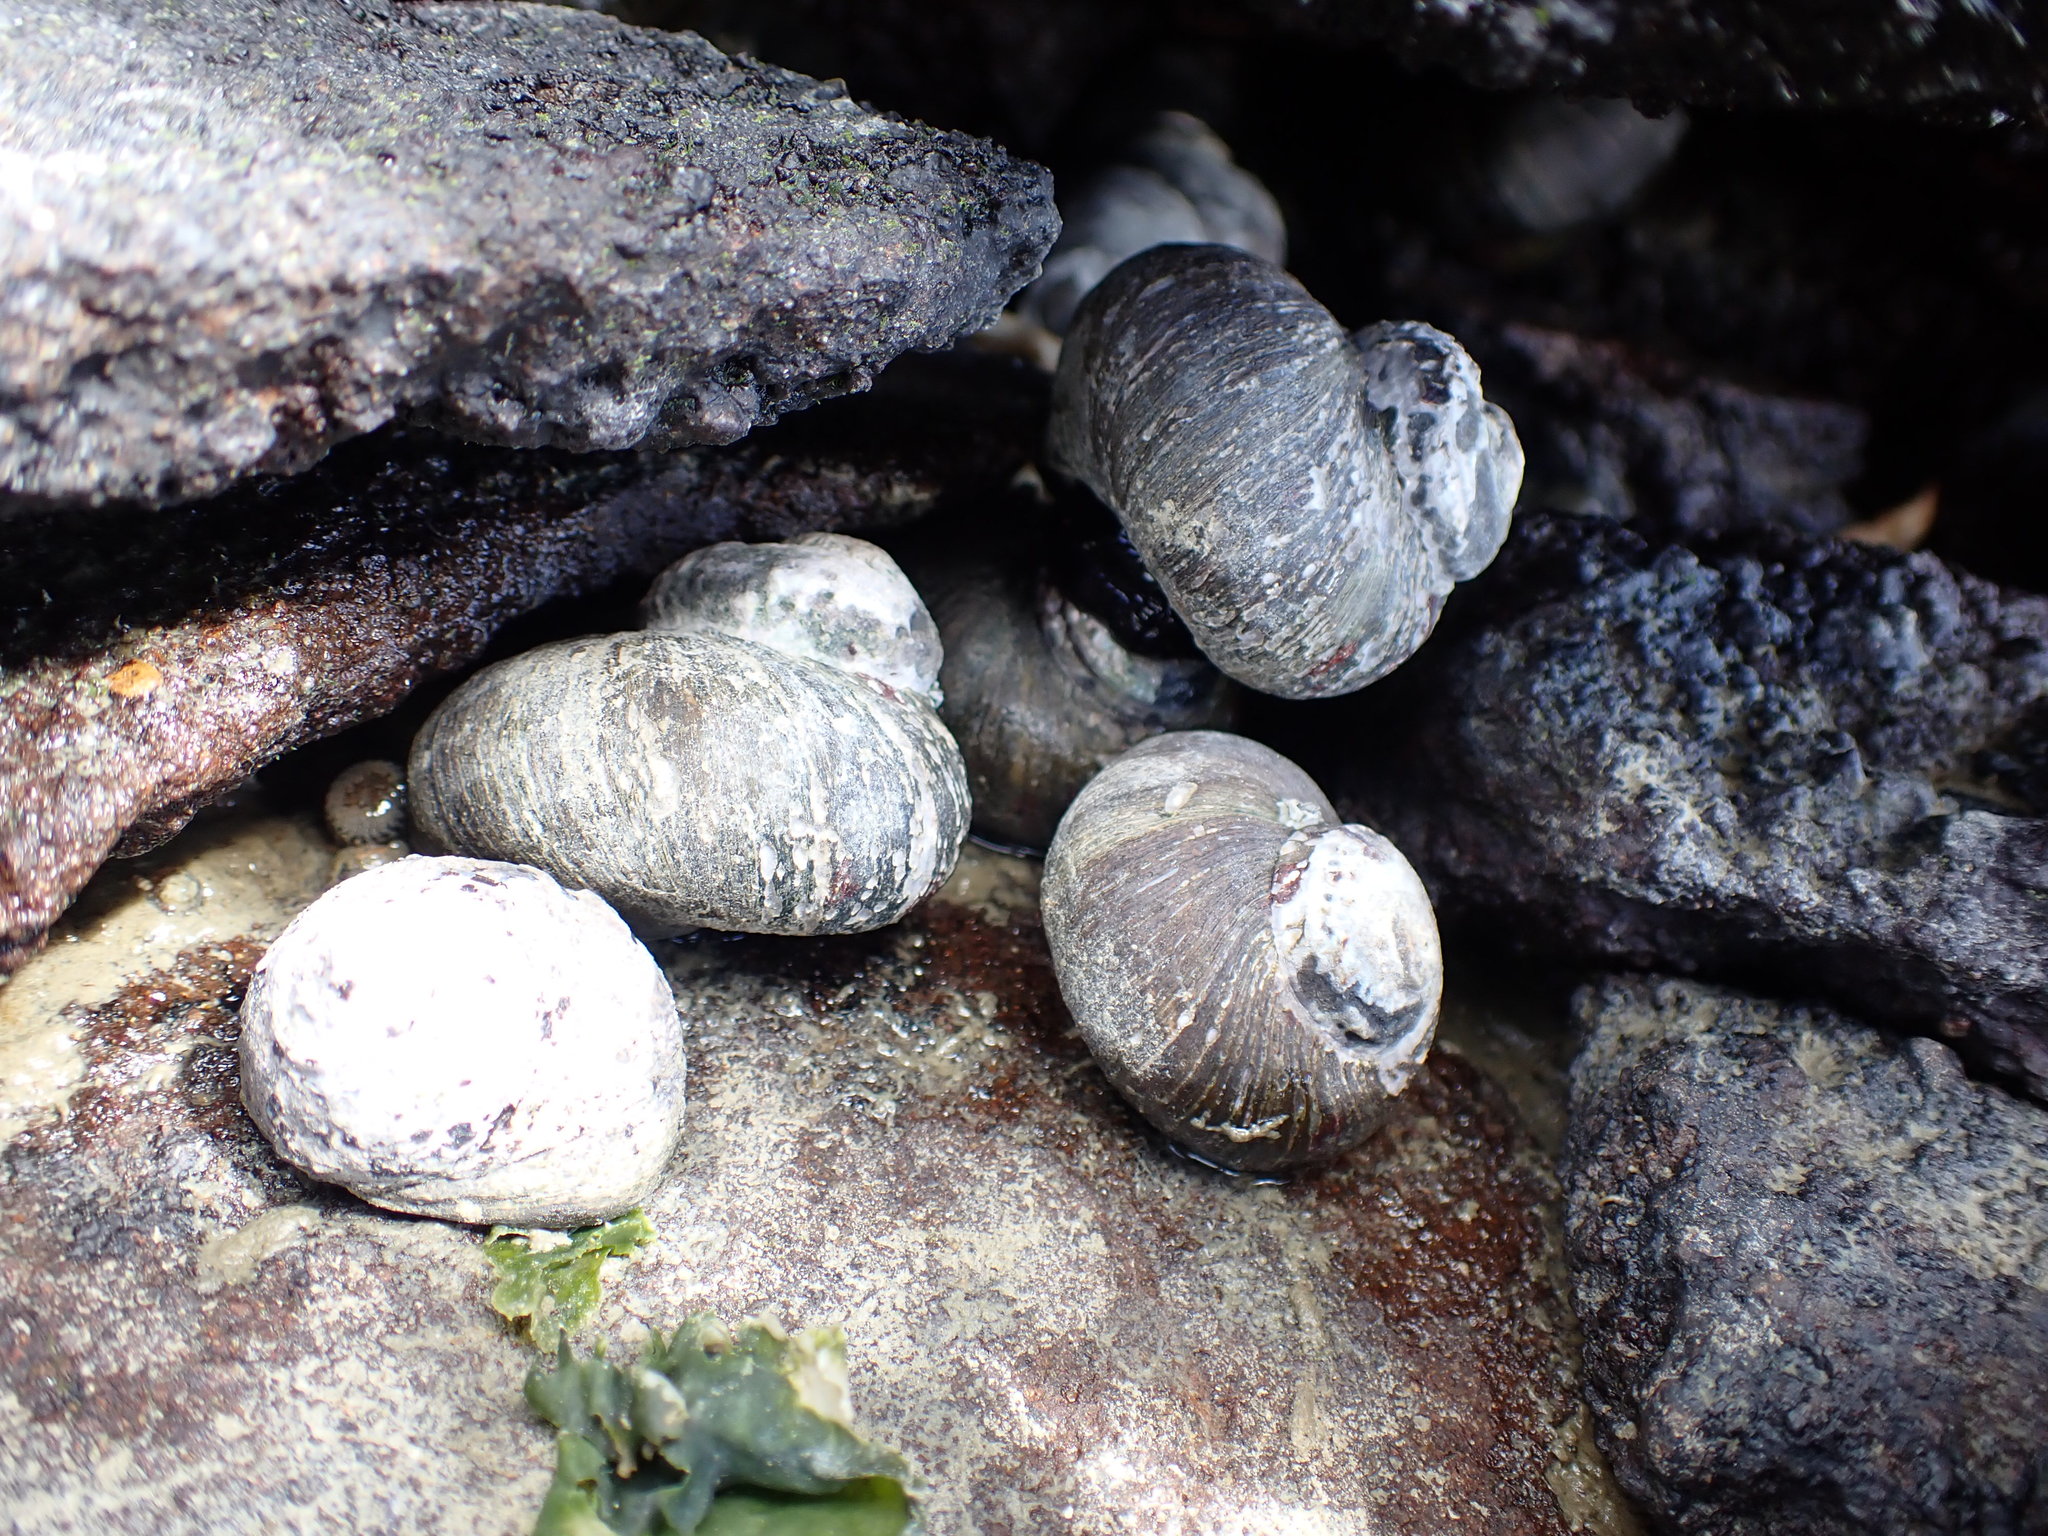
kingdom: Animalia
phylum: Mollusca
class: Gastropoda
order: Trochida
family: Turbinidae
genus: Lunella
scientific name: Lunella smaragda
